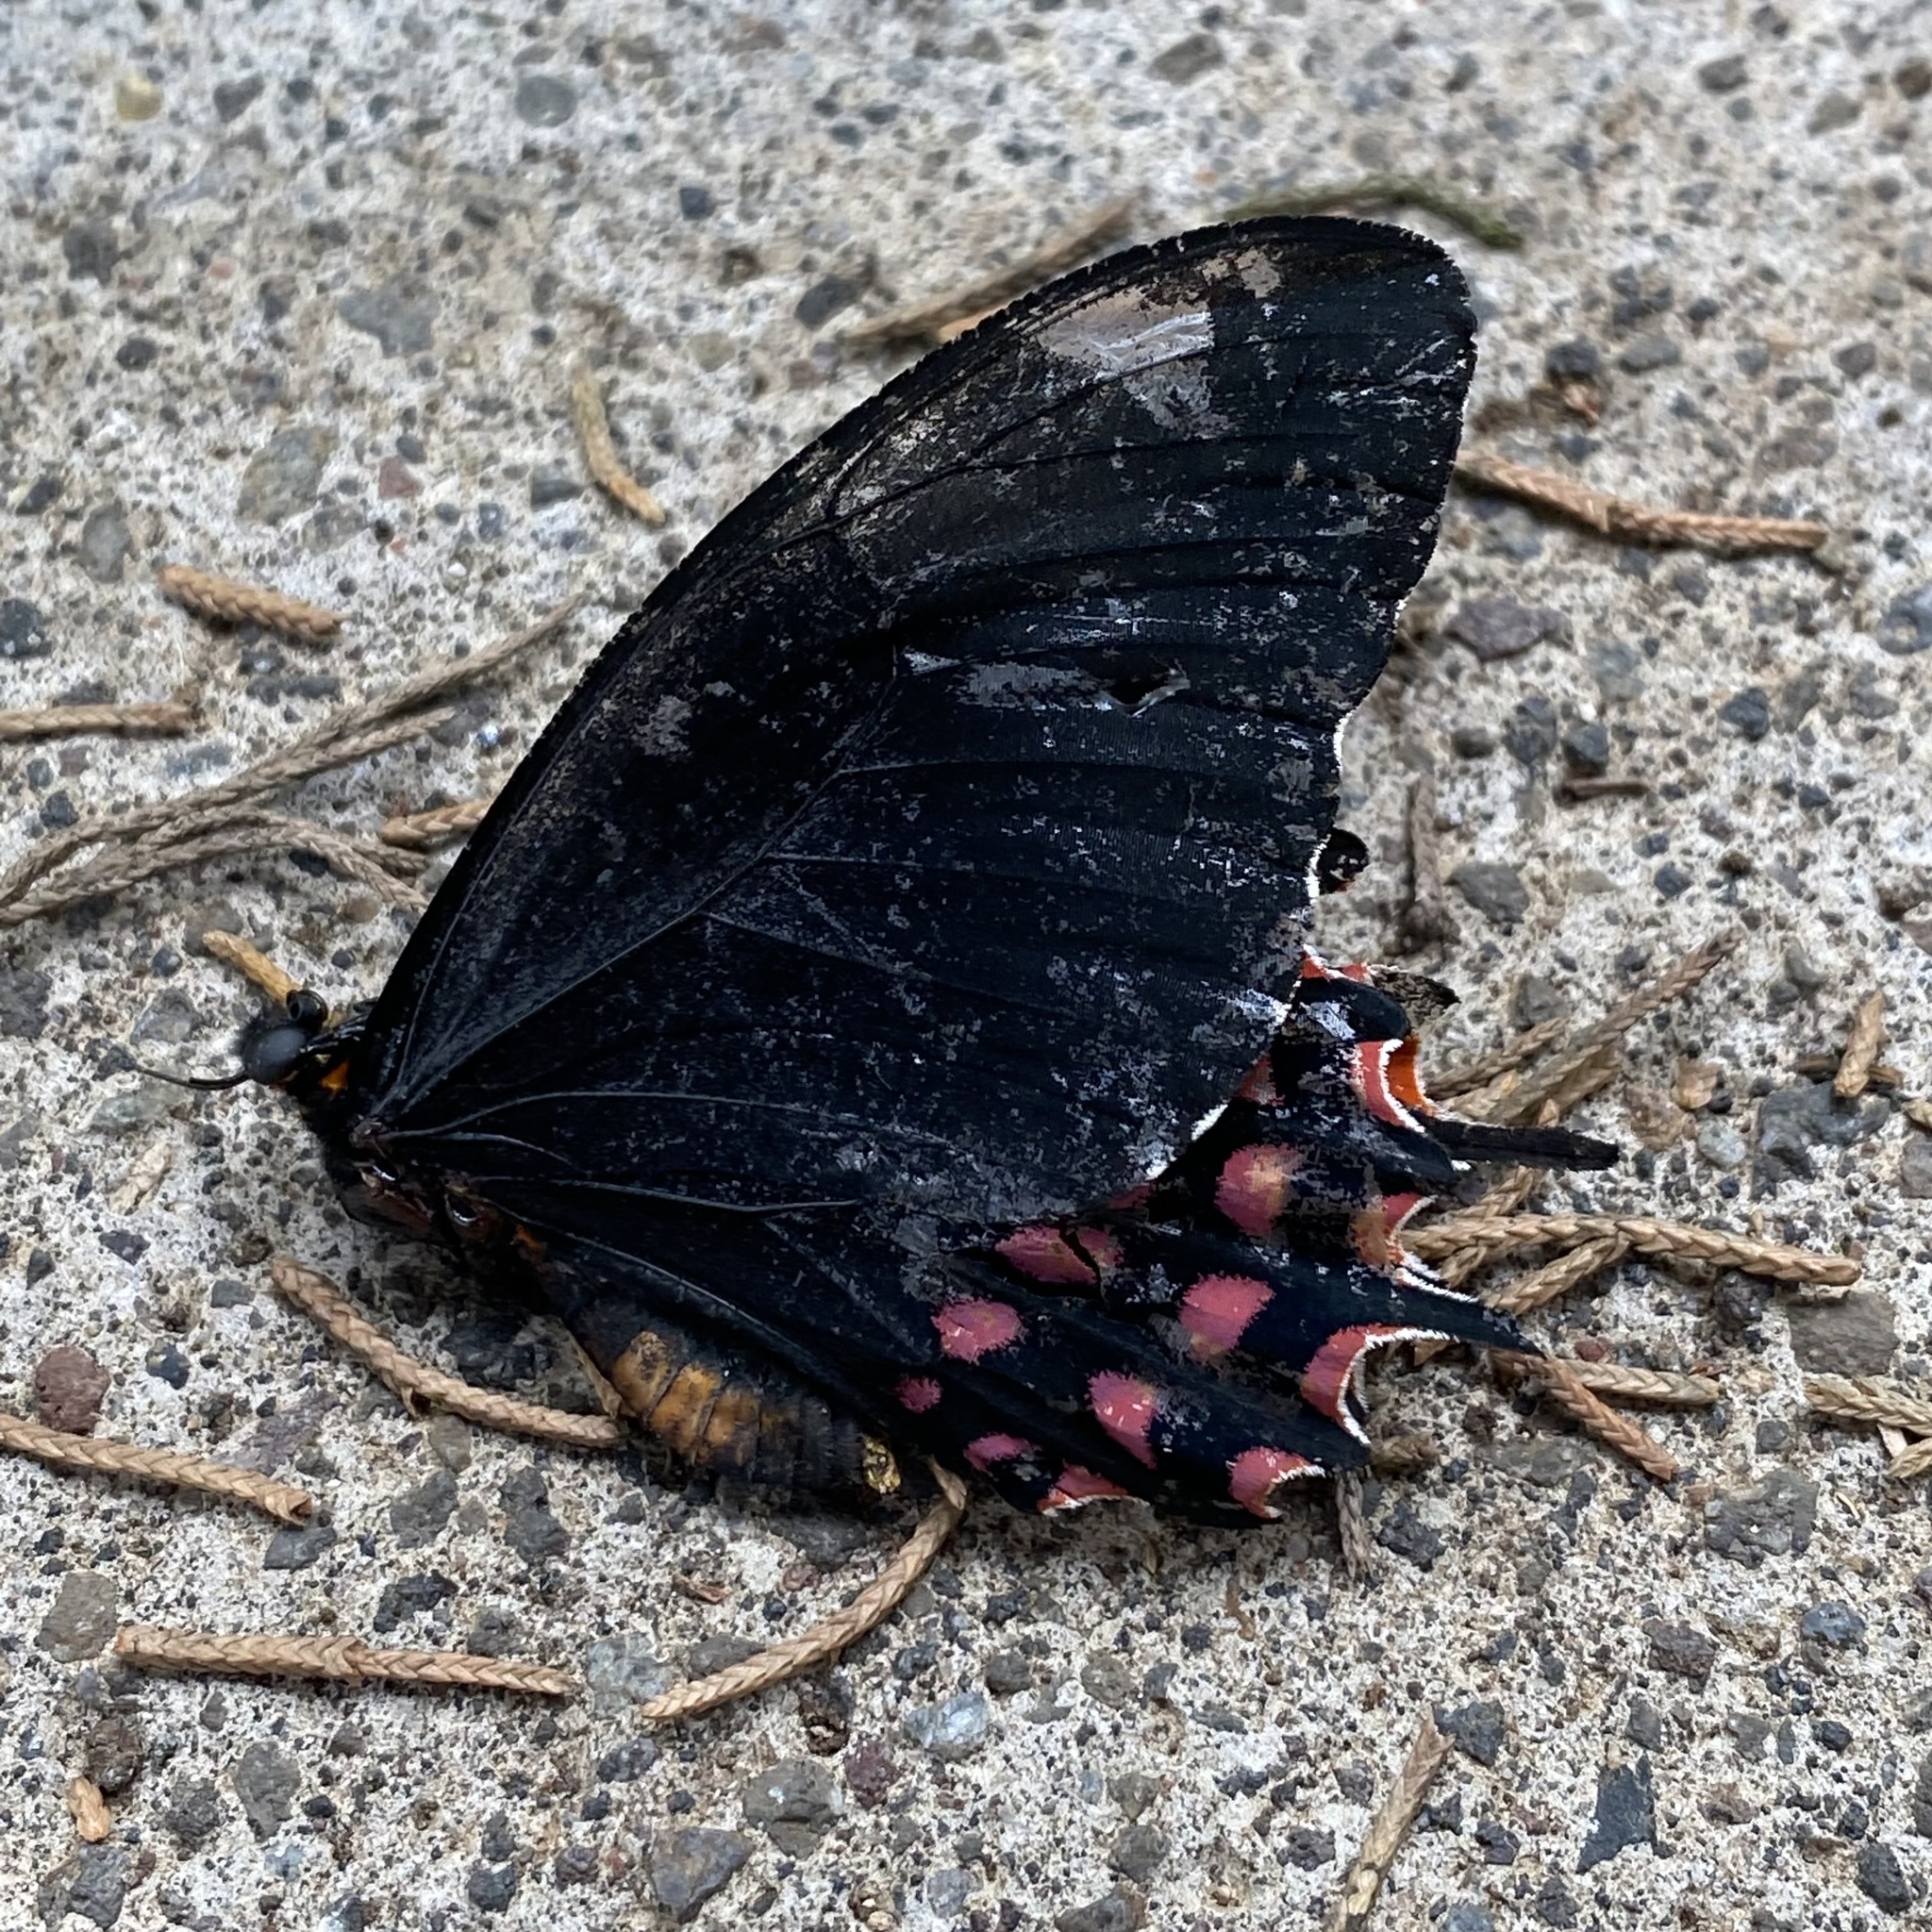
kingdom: Animalia
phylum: Arthropoda
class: Insecta
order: Lepidoptera
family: Papilionidae
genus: Heraclides
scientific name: Heraclides
